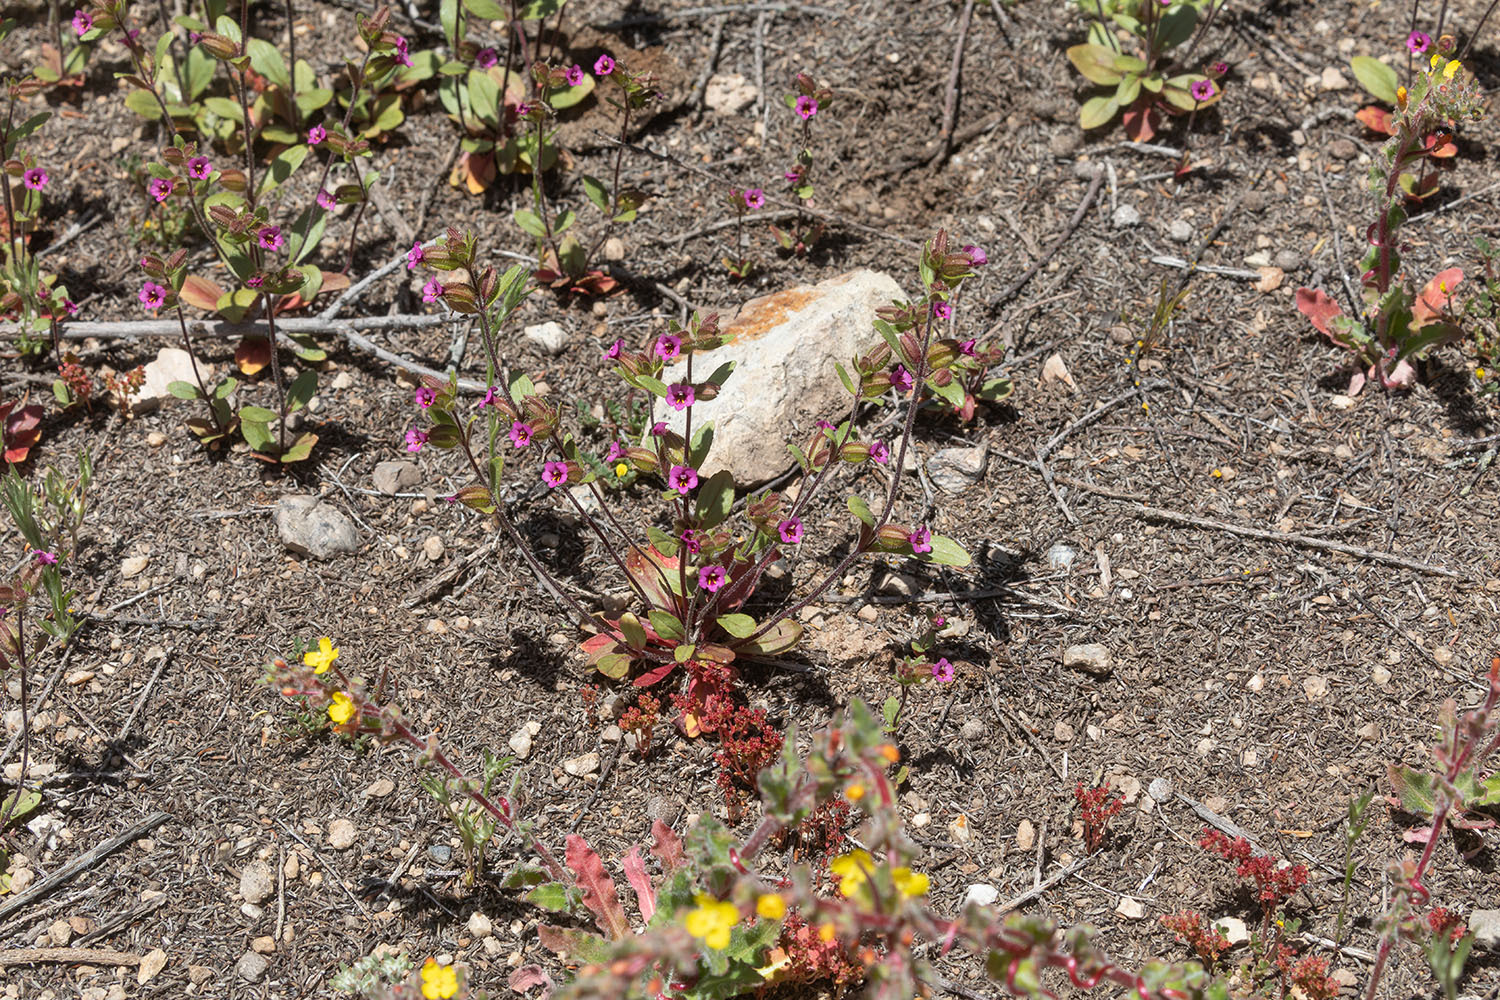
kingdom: Plantae
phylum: Tracheophyta
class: Magnoliopsida
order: Lamiales
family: Phrymaceae
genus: Diplacus
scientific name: Diplacus rattanii
